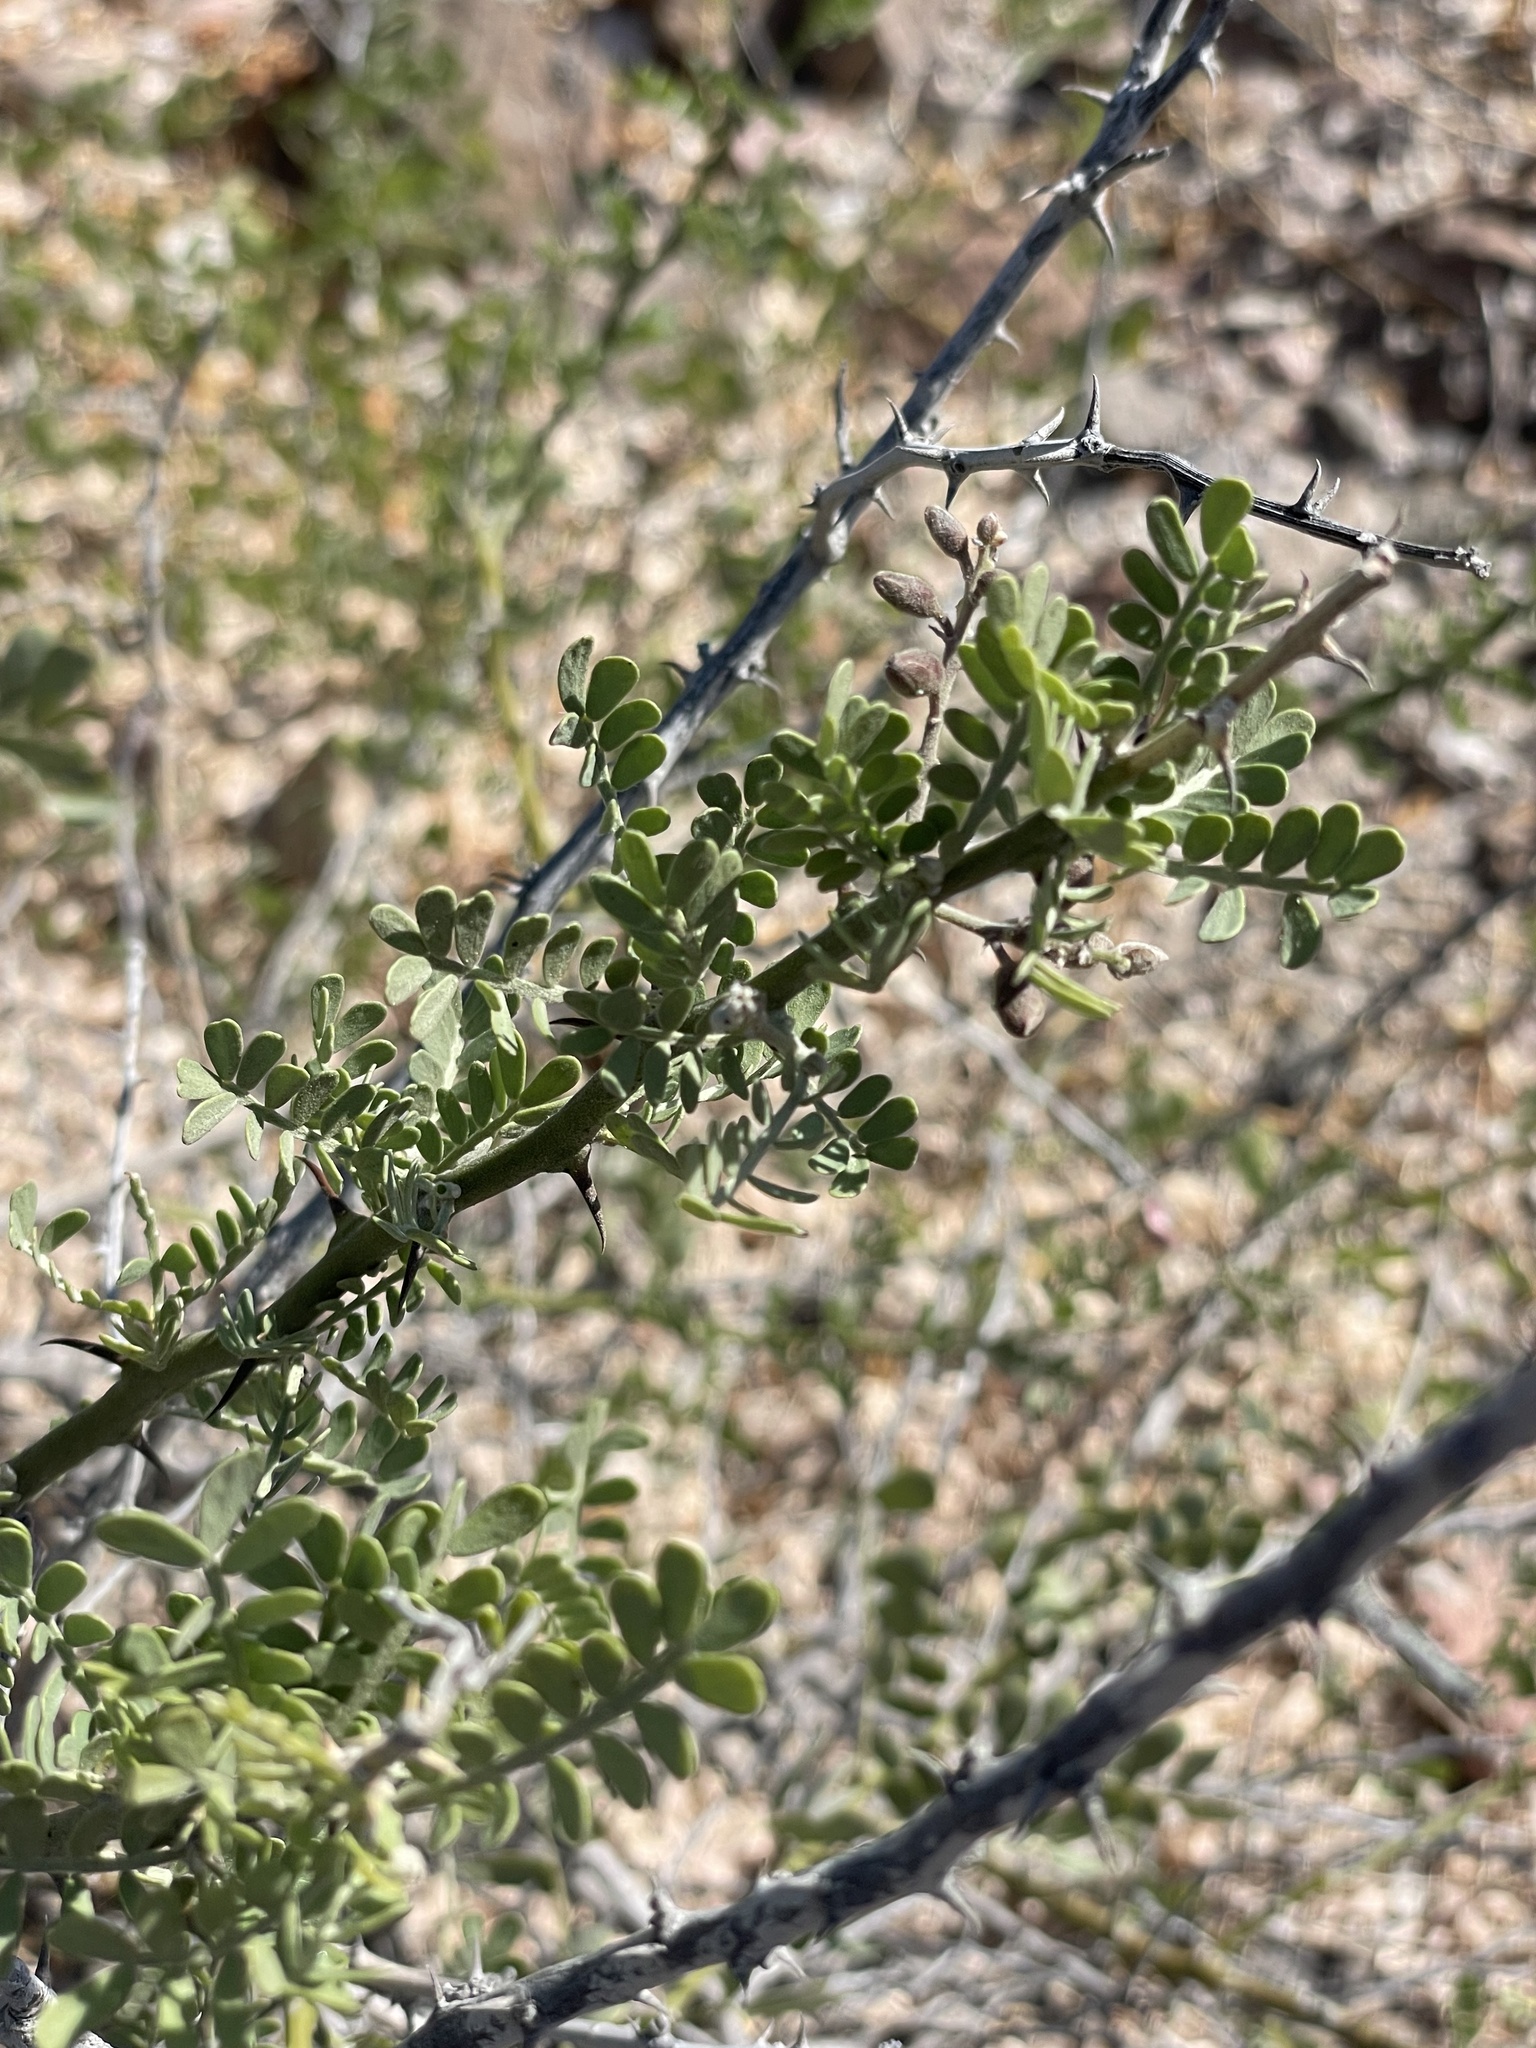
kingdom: Plantae
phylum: Tracheophyta
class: Magnoliopsida
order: Fabales
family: Fabaceae
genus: Olneya
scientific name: Olneya tesota
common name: Desert ironwood
